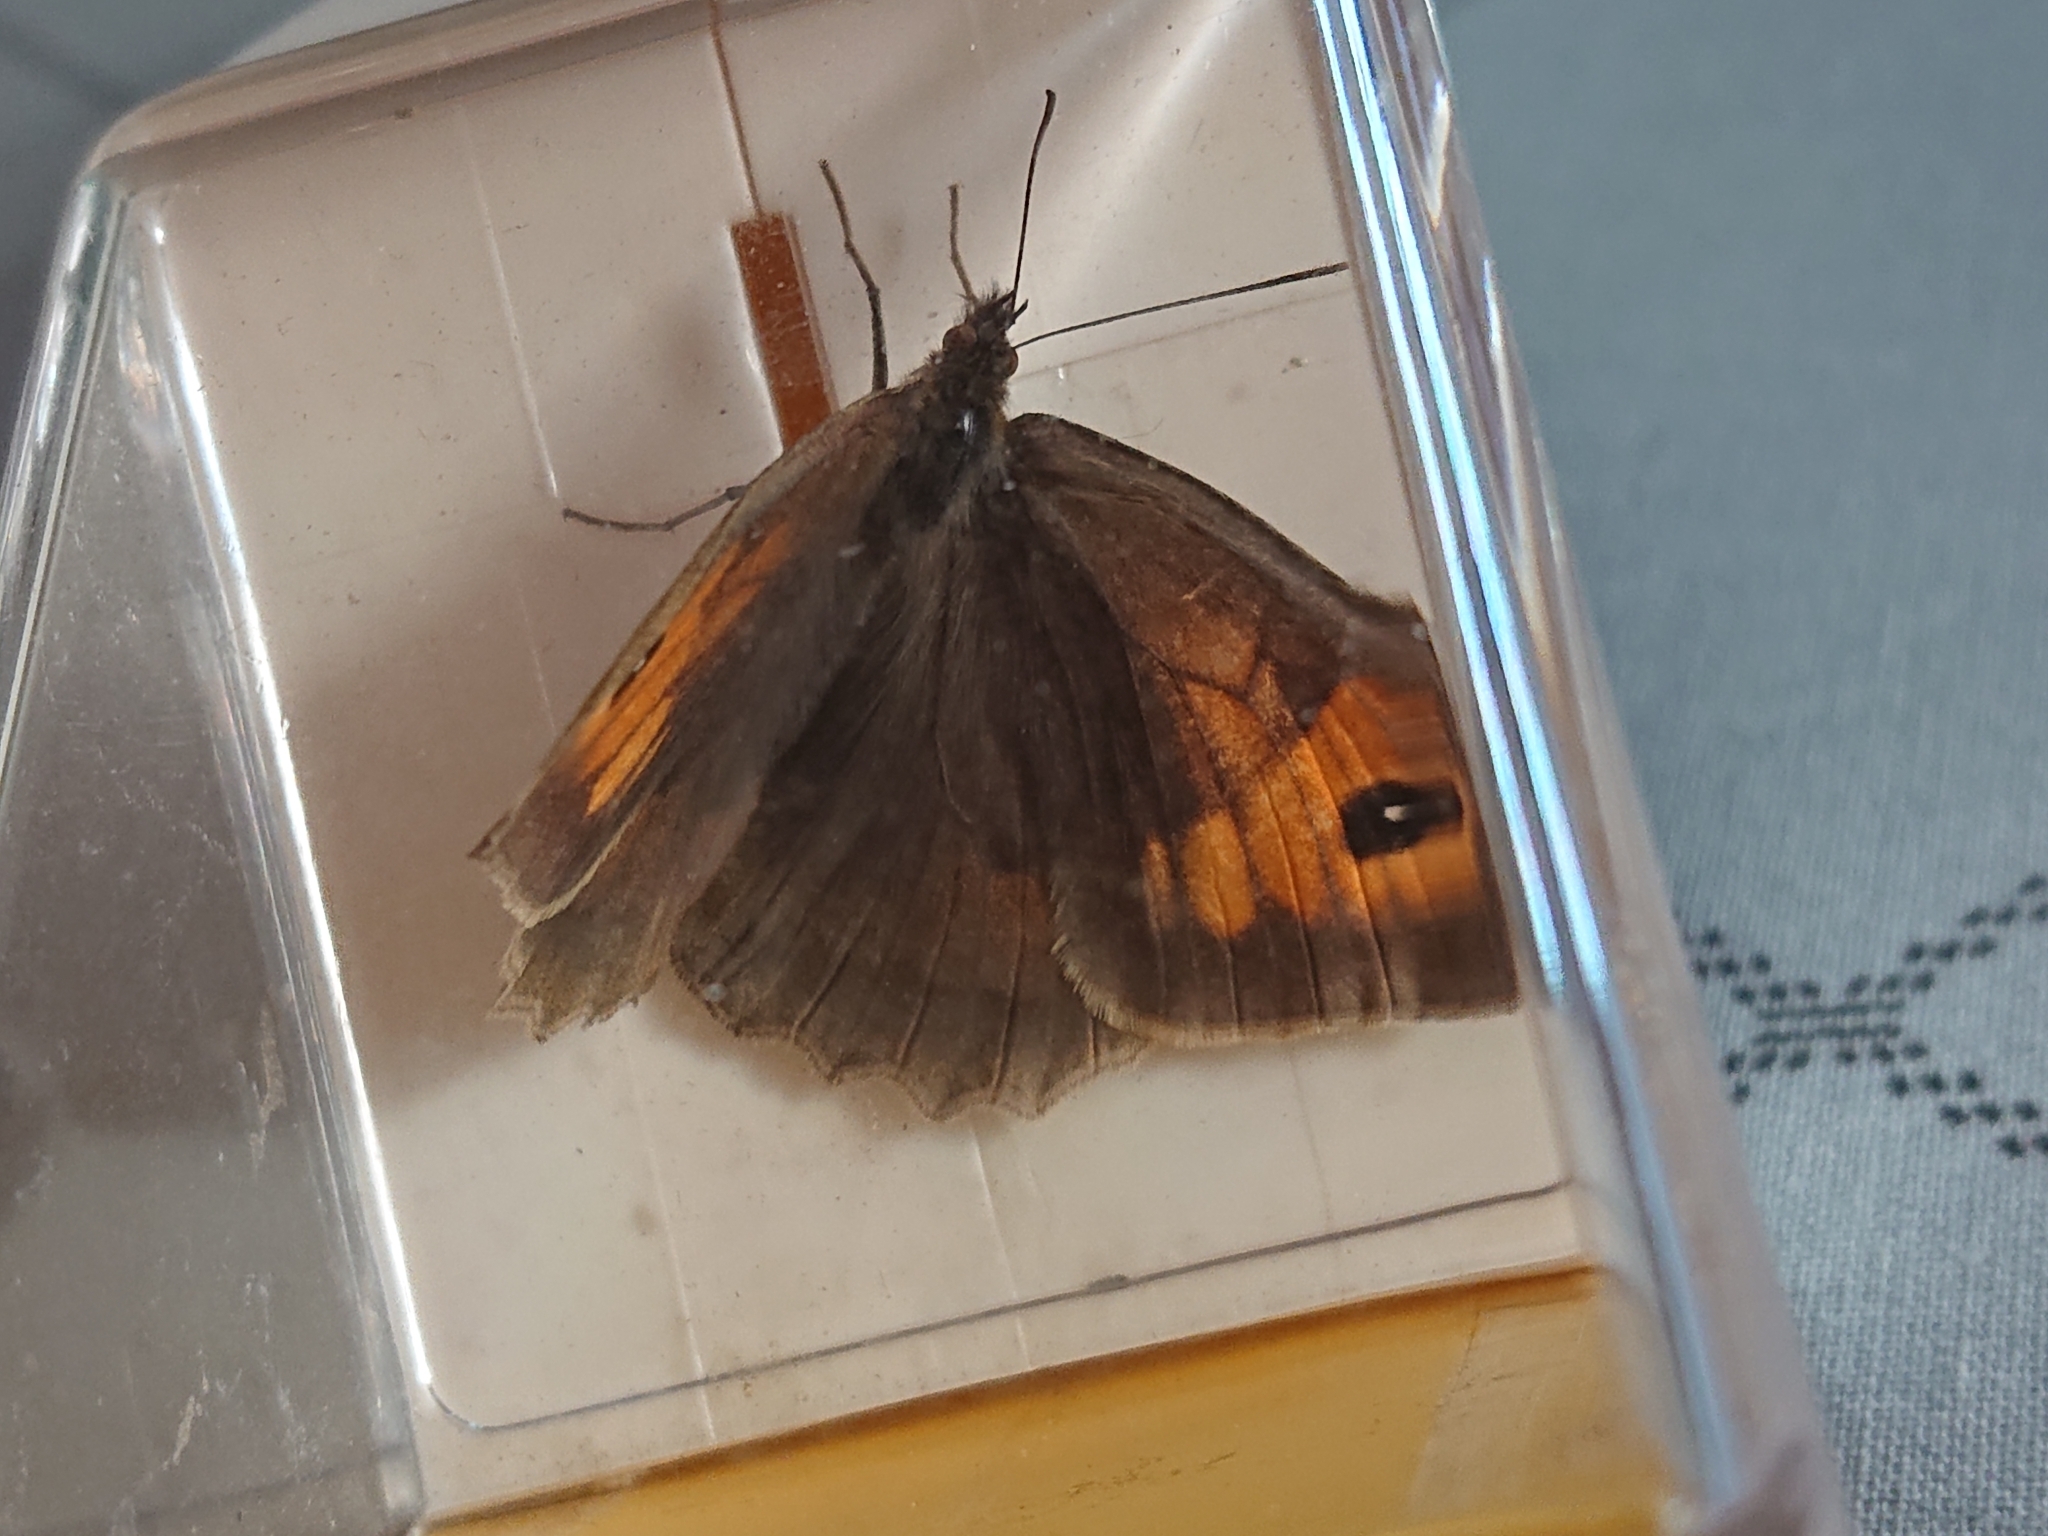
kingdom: Animalia
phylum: Arthropoda
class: Insecta
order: Lepidoptera
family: Nymphalidae
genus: Maniola
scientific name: Maniola jurtina
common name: Meadow brown
